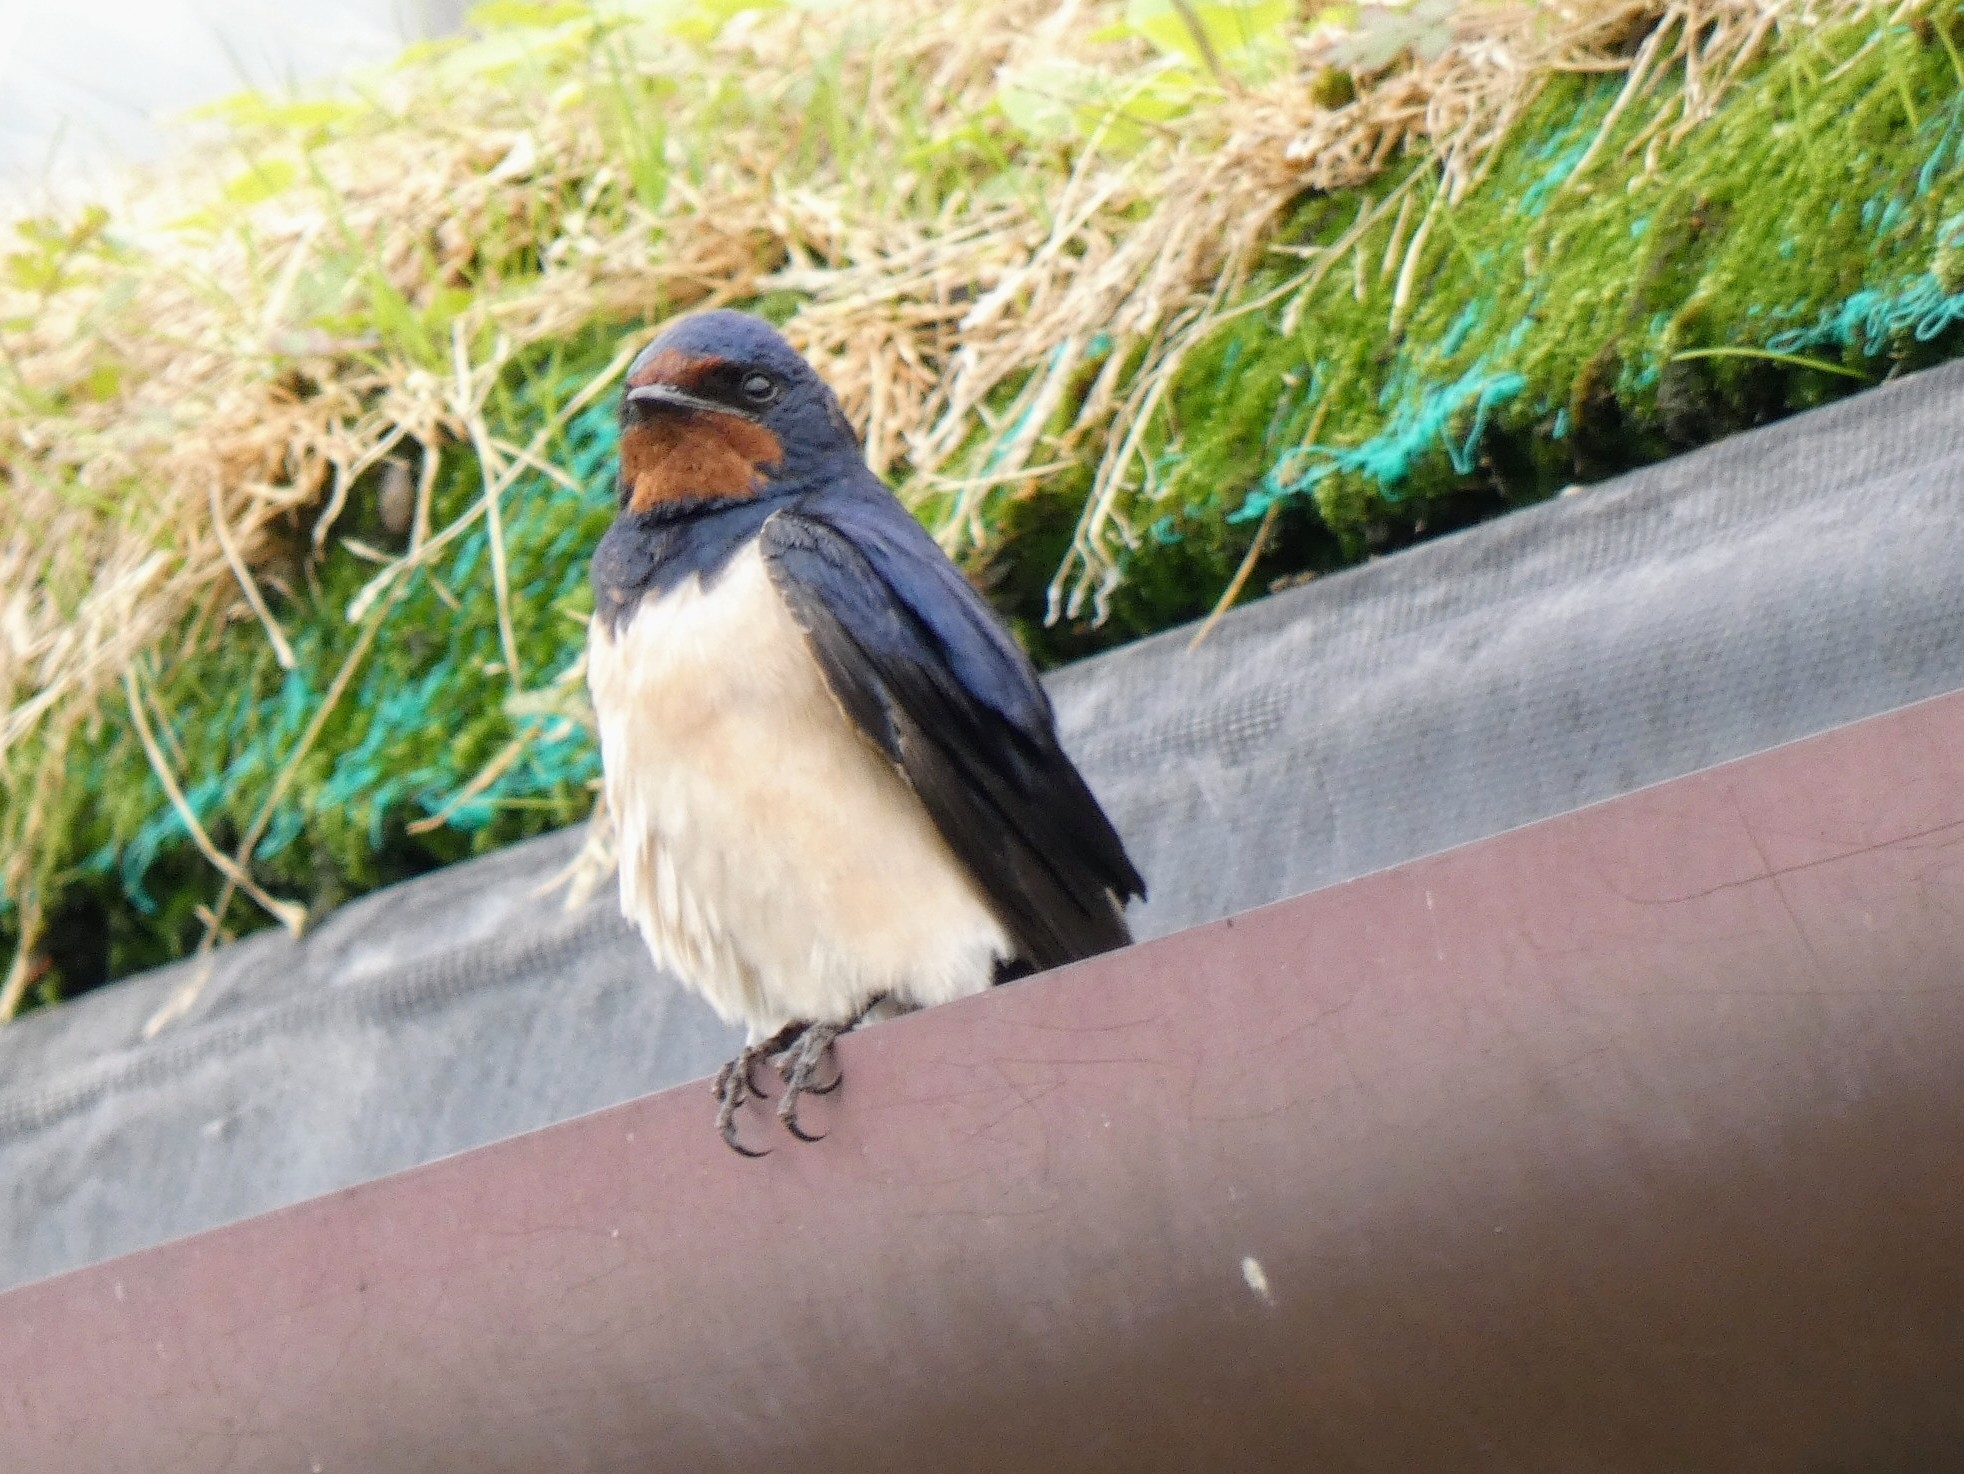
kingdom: Animalia
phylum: Chordata
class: Aves
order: Passeriformes
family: Hirundinidae
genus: Hirundo
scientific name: Hirundo rustica
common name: Barn swallow
